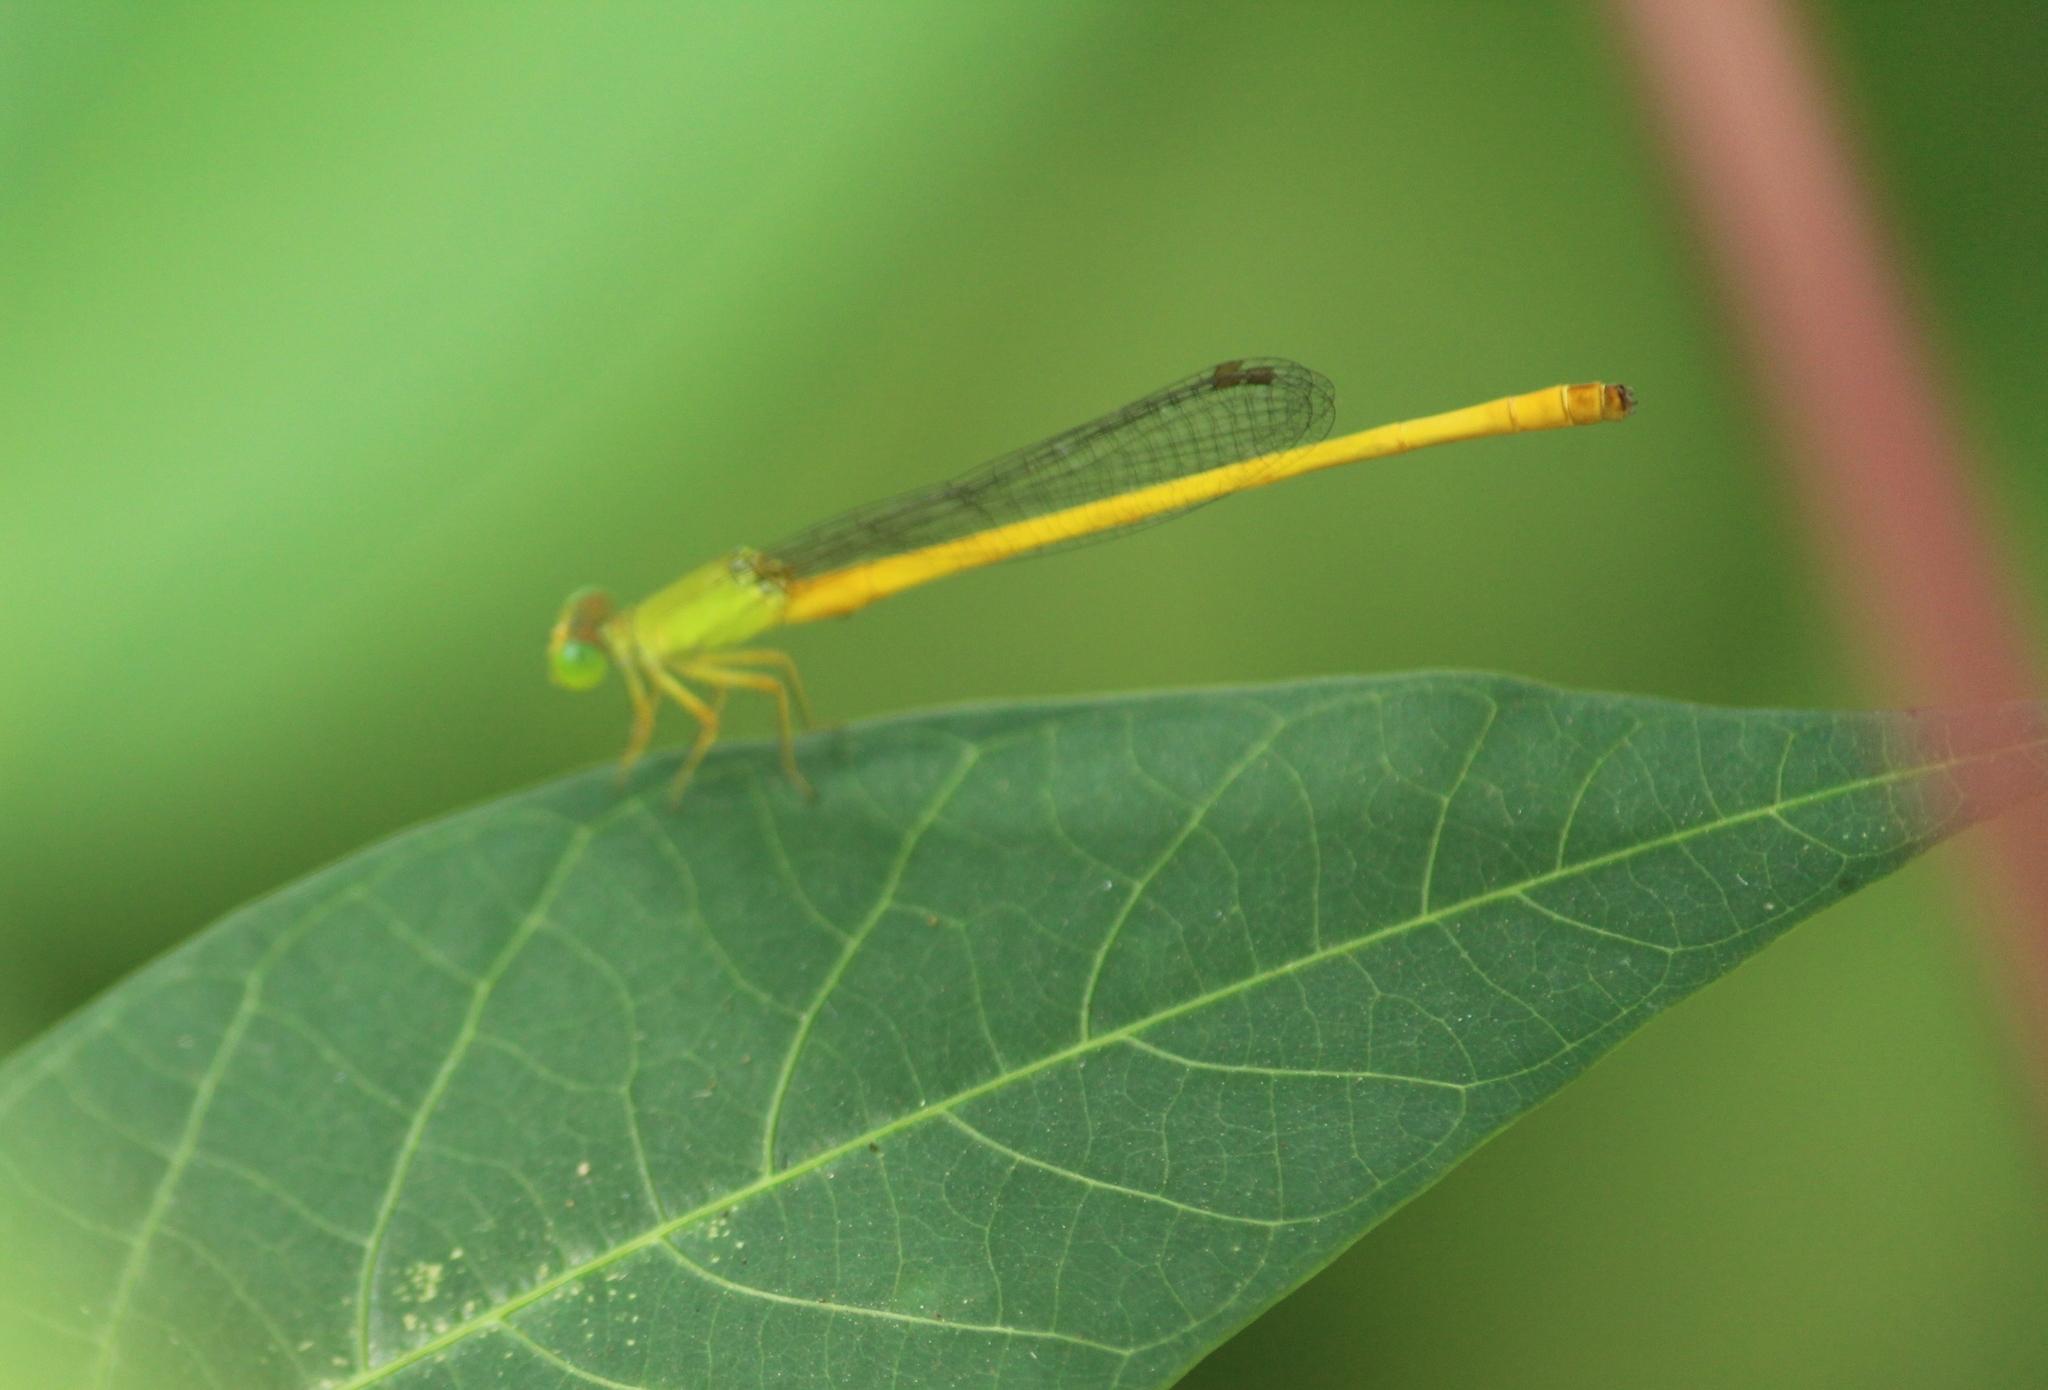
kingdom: Animalia
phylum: Arthropoda
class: Insecta
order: Odonata
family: Coenagrionidae
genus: Ceriagrion
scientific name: Ceriagrion coromandelianum
